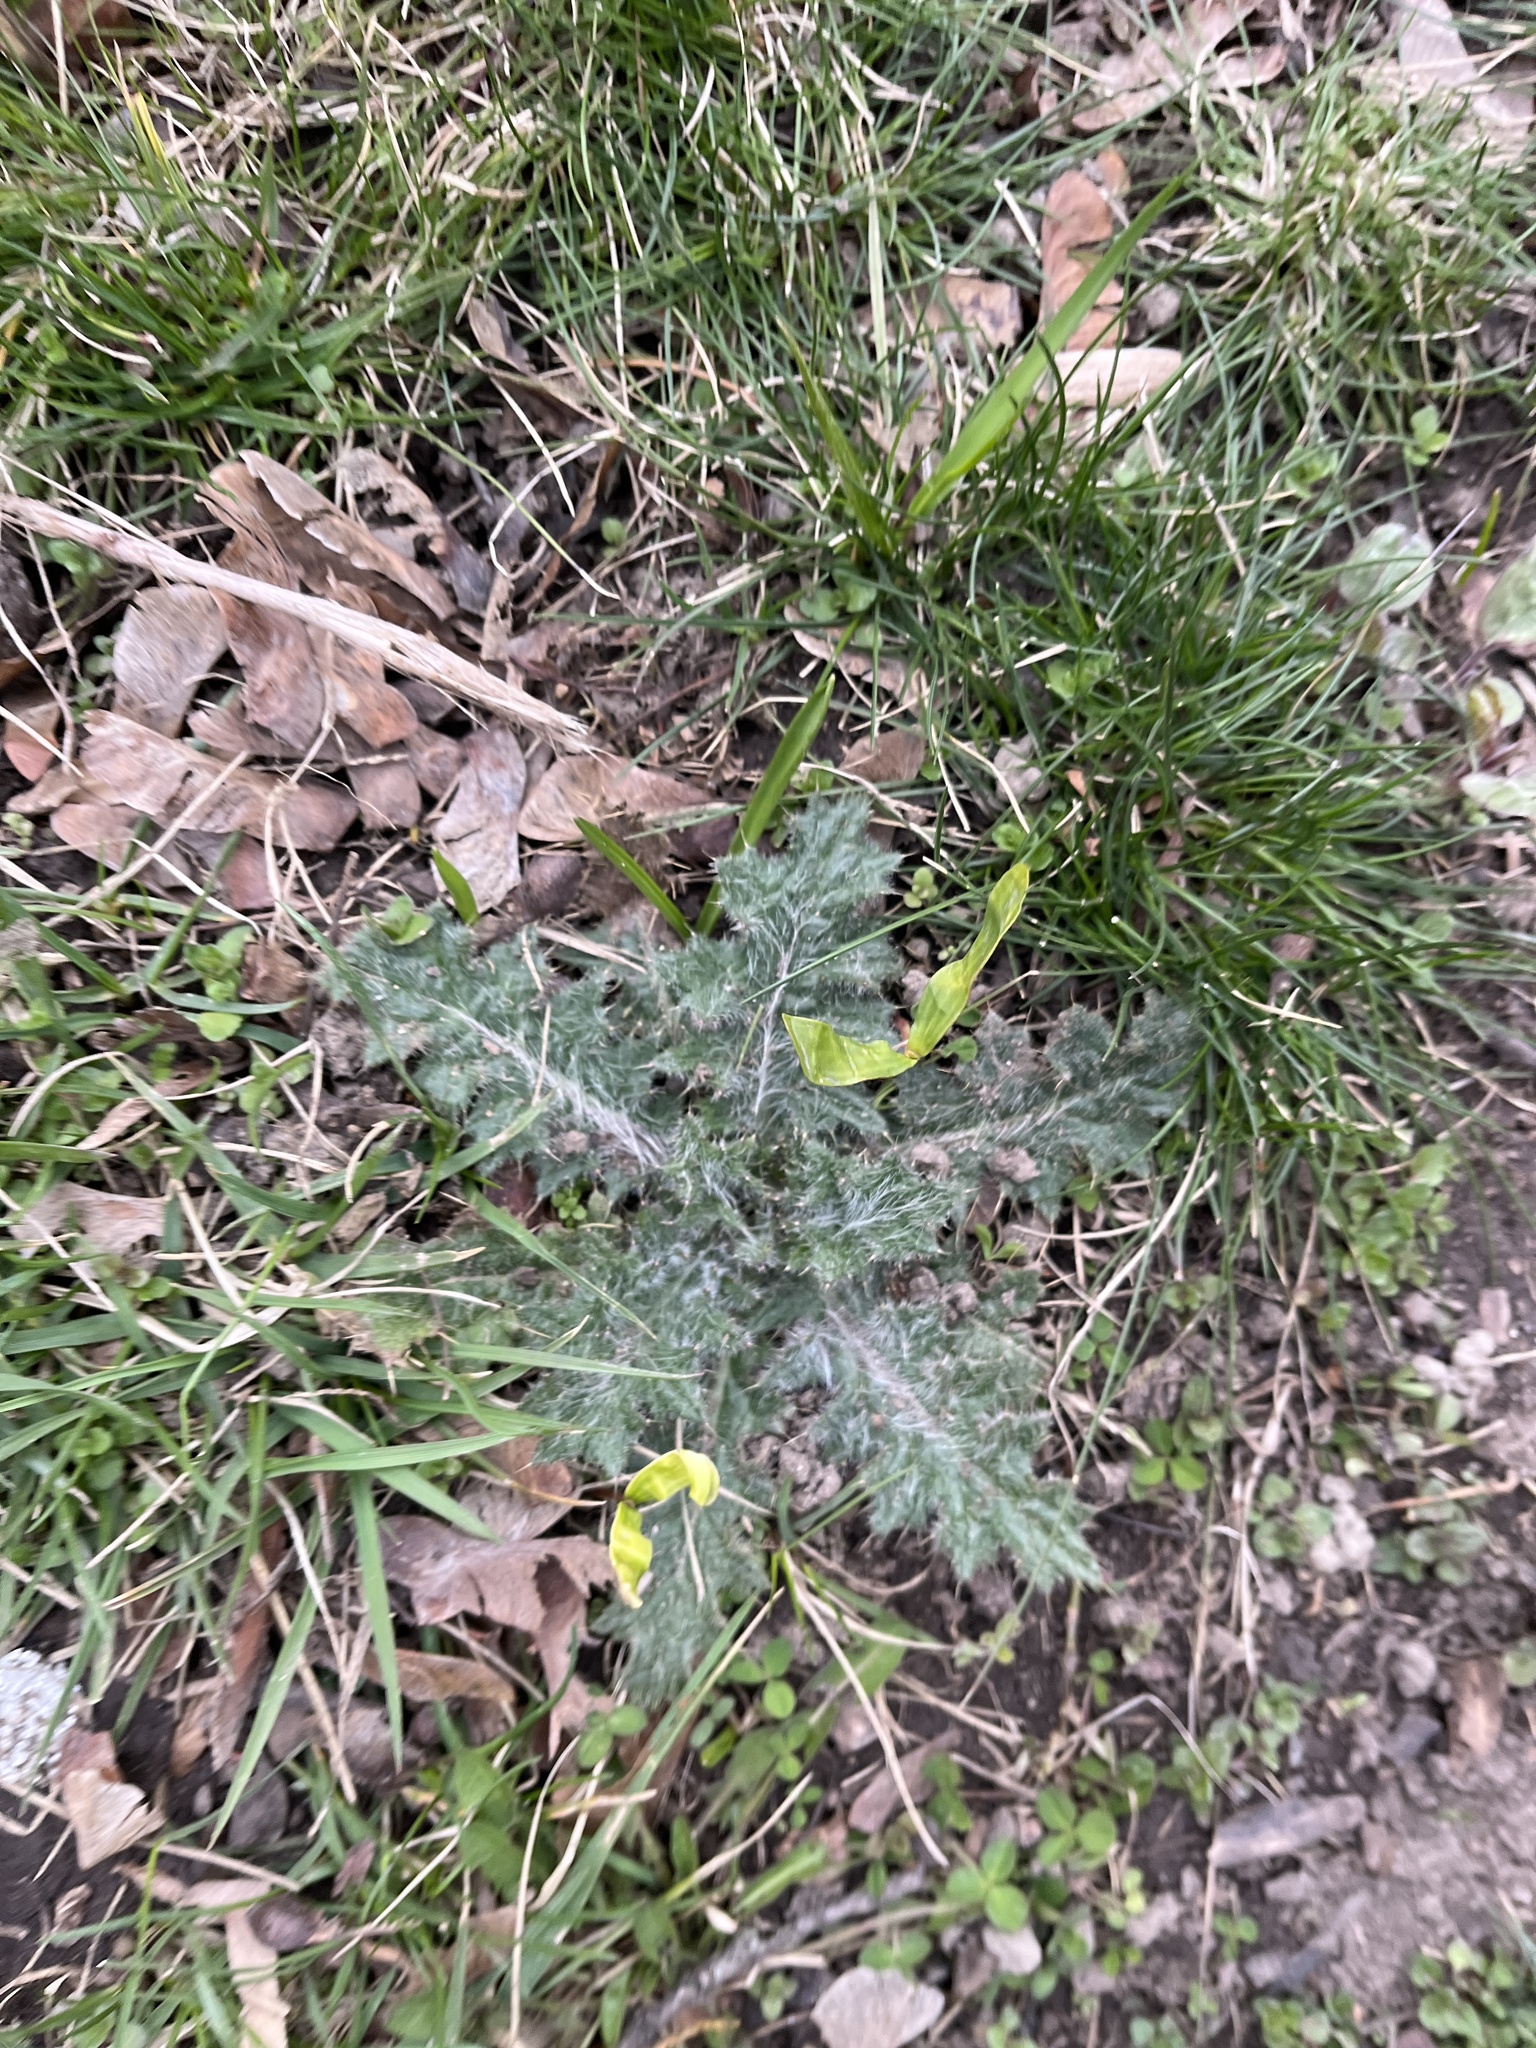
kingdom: Plantae
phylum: Tracheophyta
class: Magnoliopsida
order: Asterales
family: Asteraceae
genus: Cirsium
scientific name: Cirsium vulgare
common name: Bull thistle
